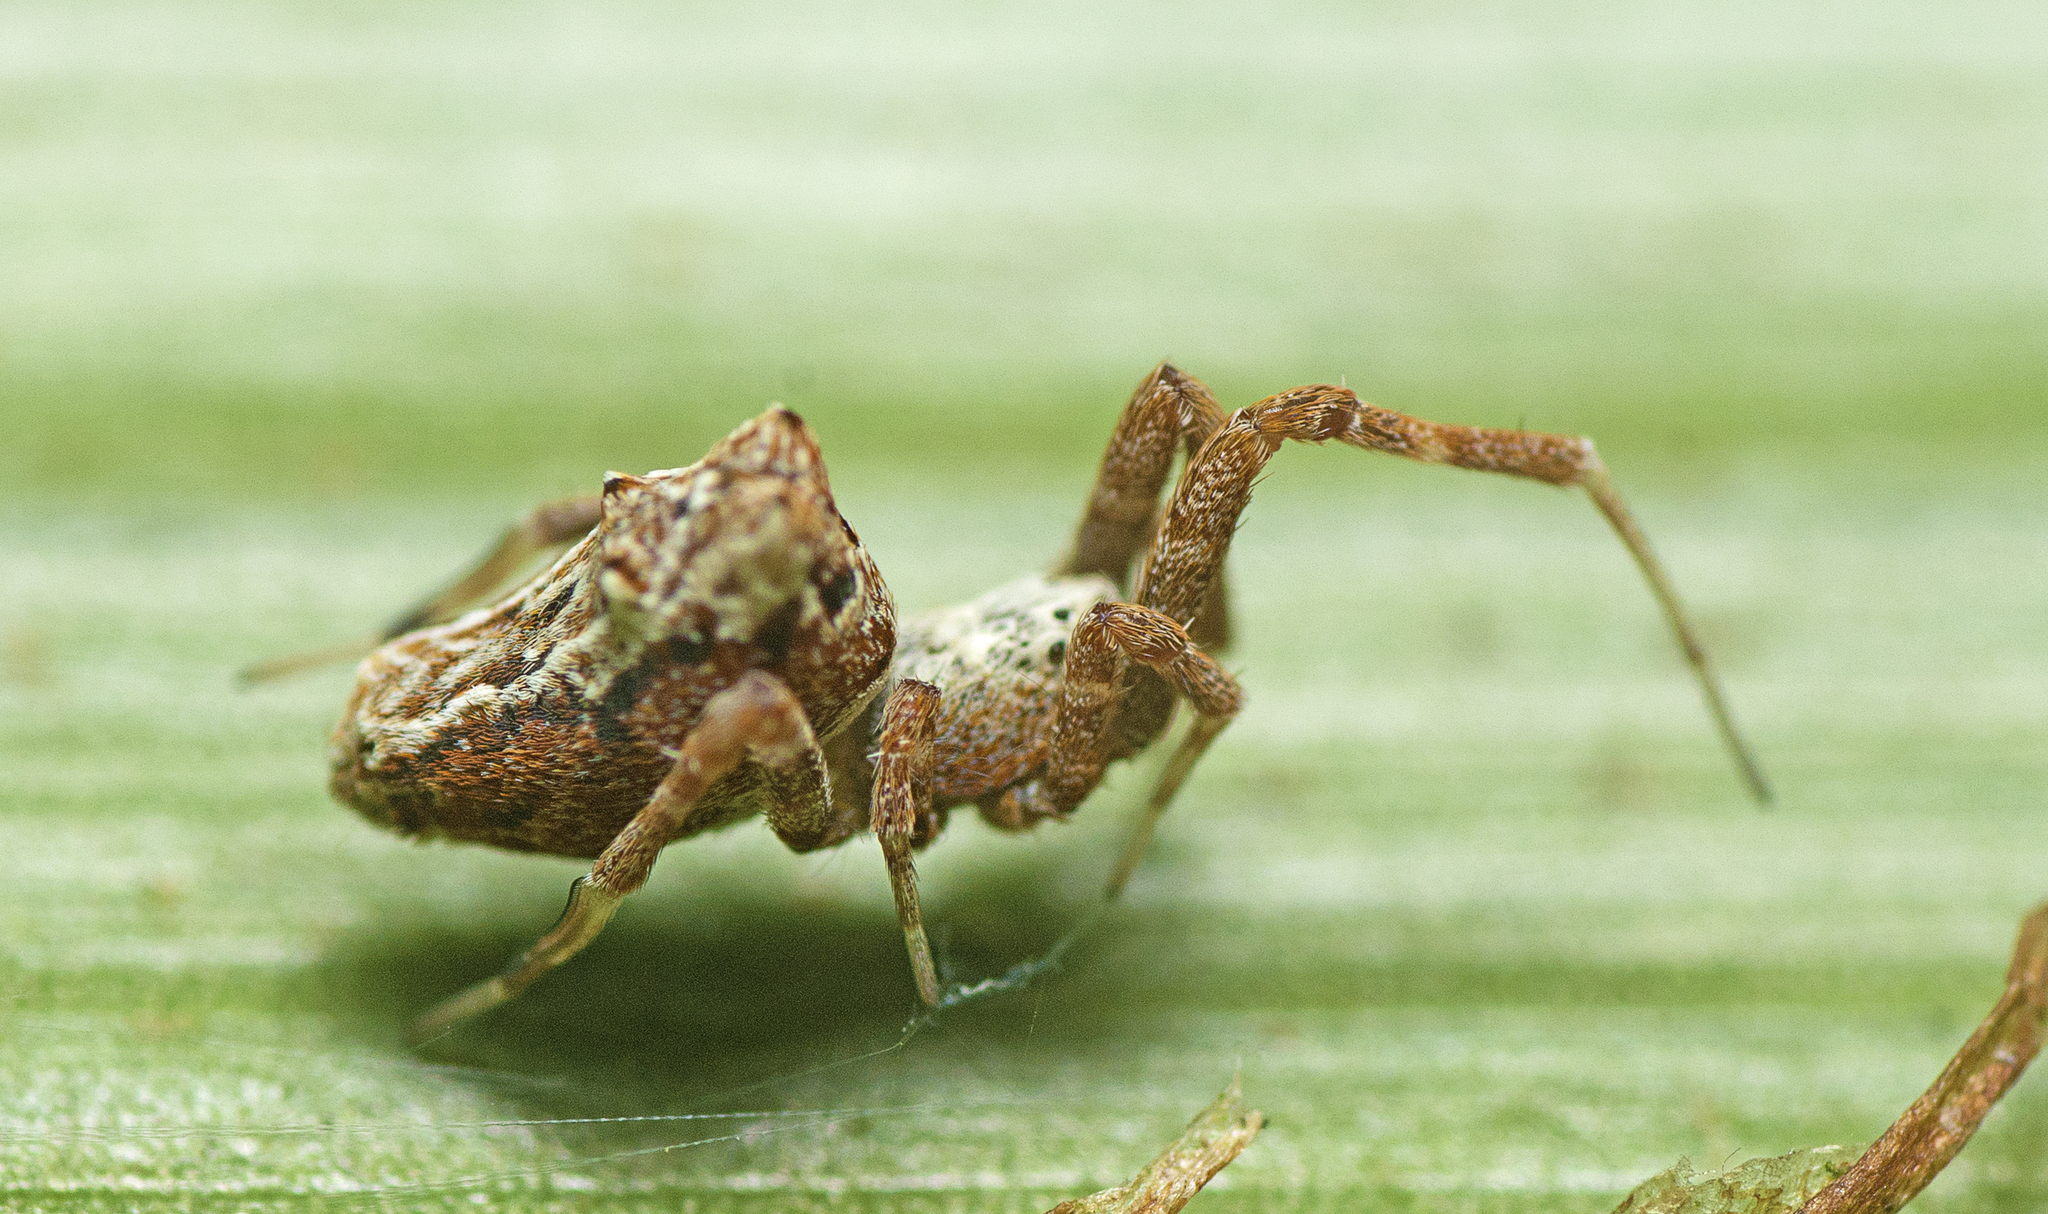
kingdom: Animalia
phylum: Arthropoda
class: Arachnida
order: Araneae
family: Uloboridae
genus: Philoponella
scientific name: Philoponella congregabilis
